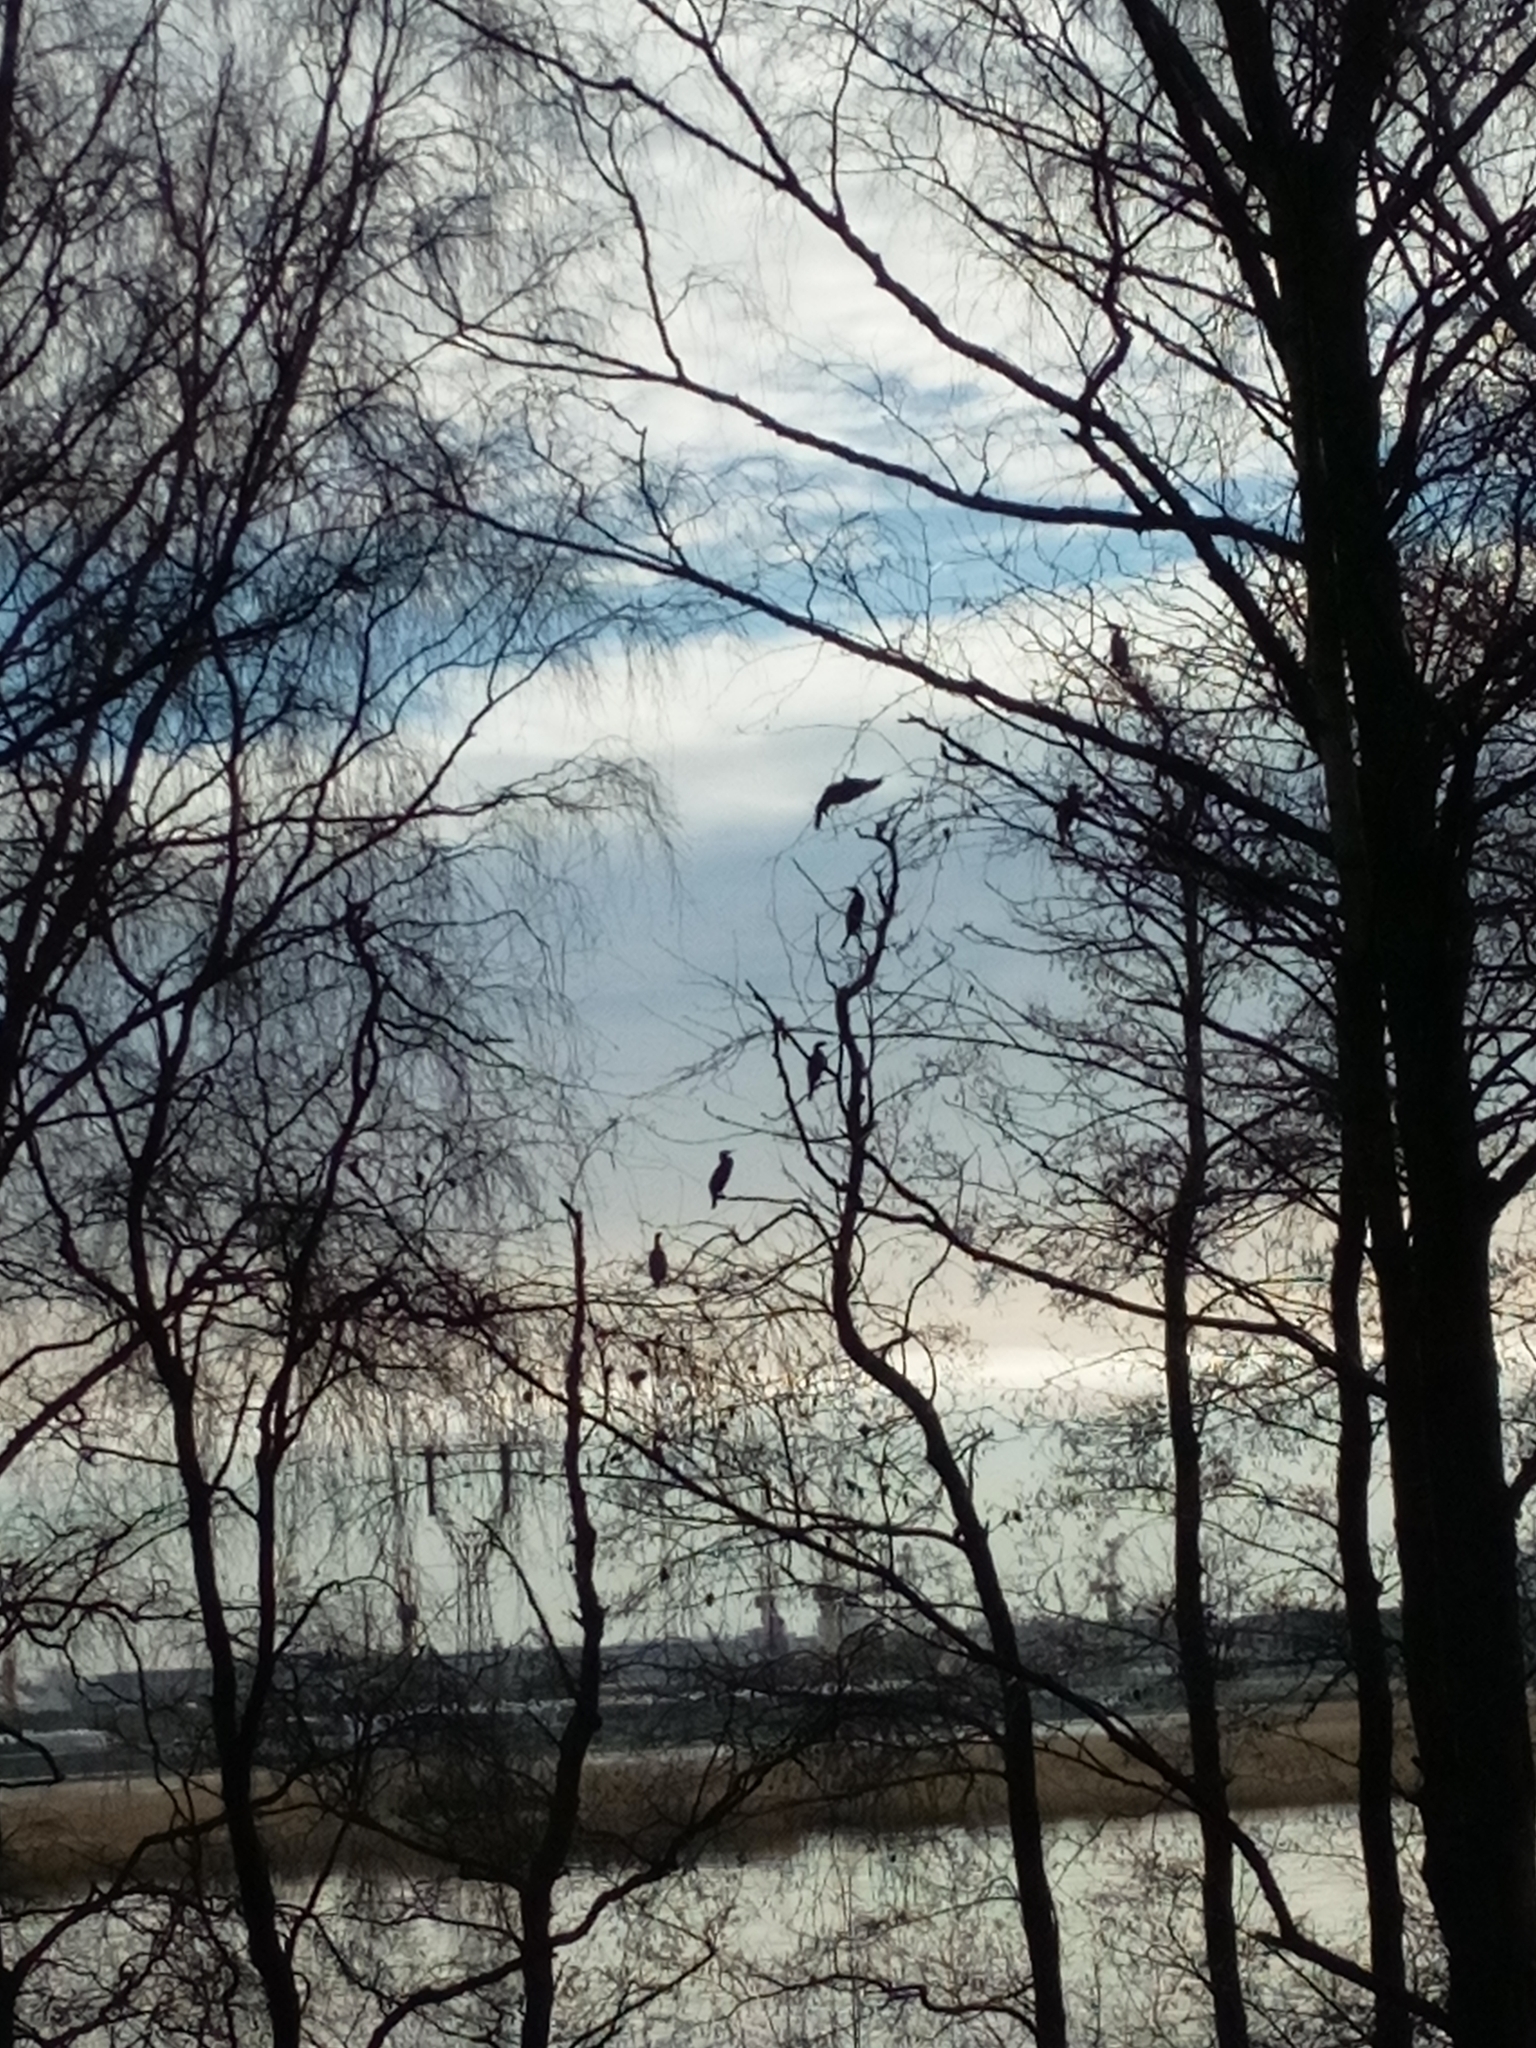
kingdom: Animalia
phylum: Chordata
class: Aves
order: Suliformes
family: Phalacrocoracidae
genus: Phalacrocorax
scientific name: Phalacrocorax carbo
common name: Great cormorant
